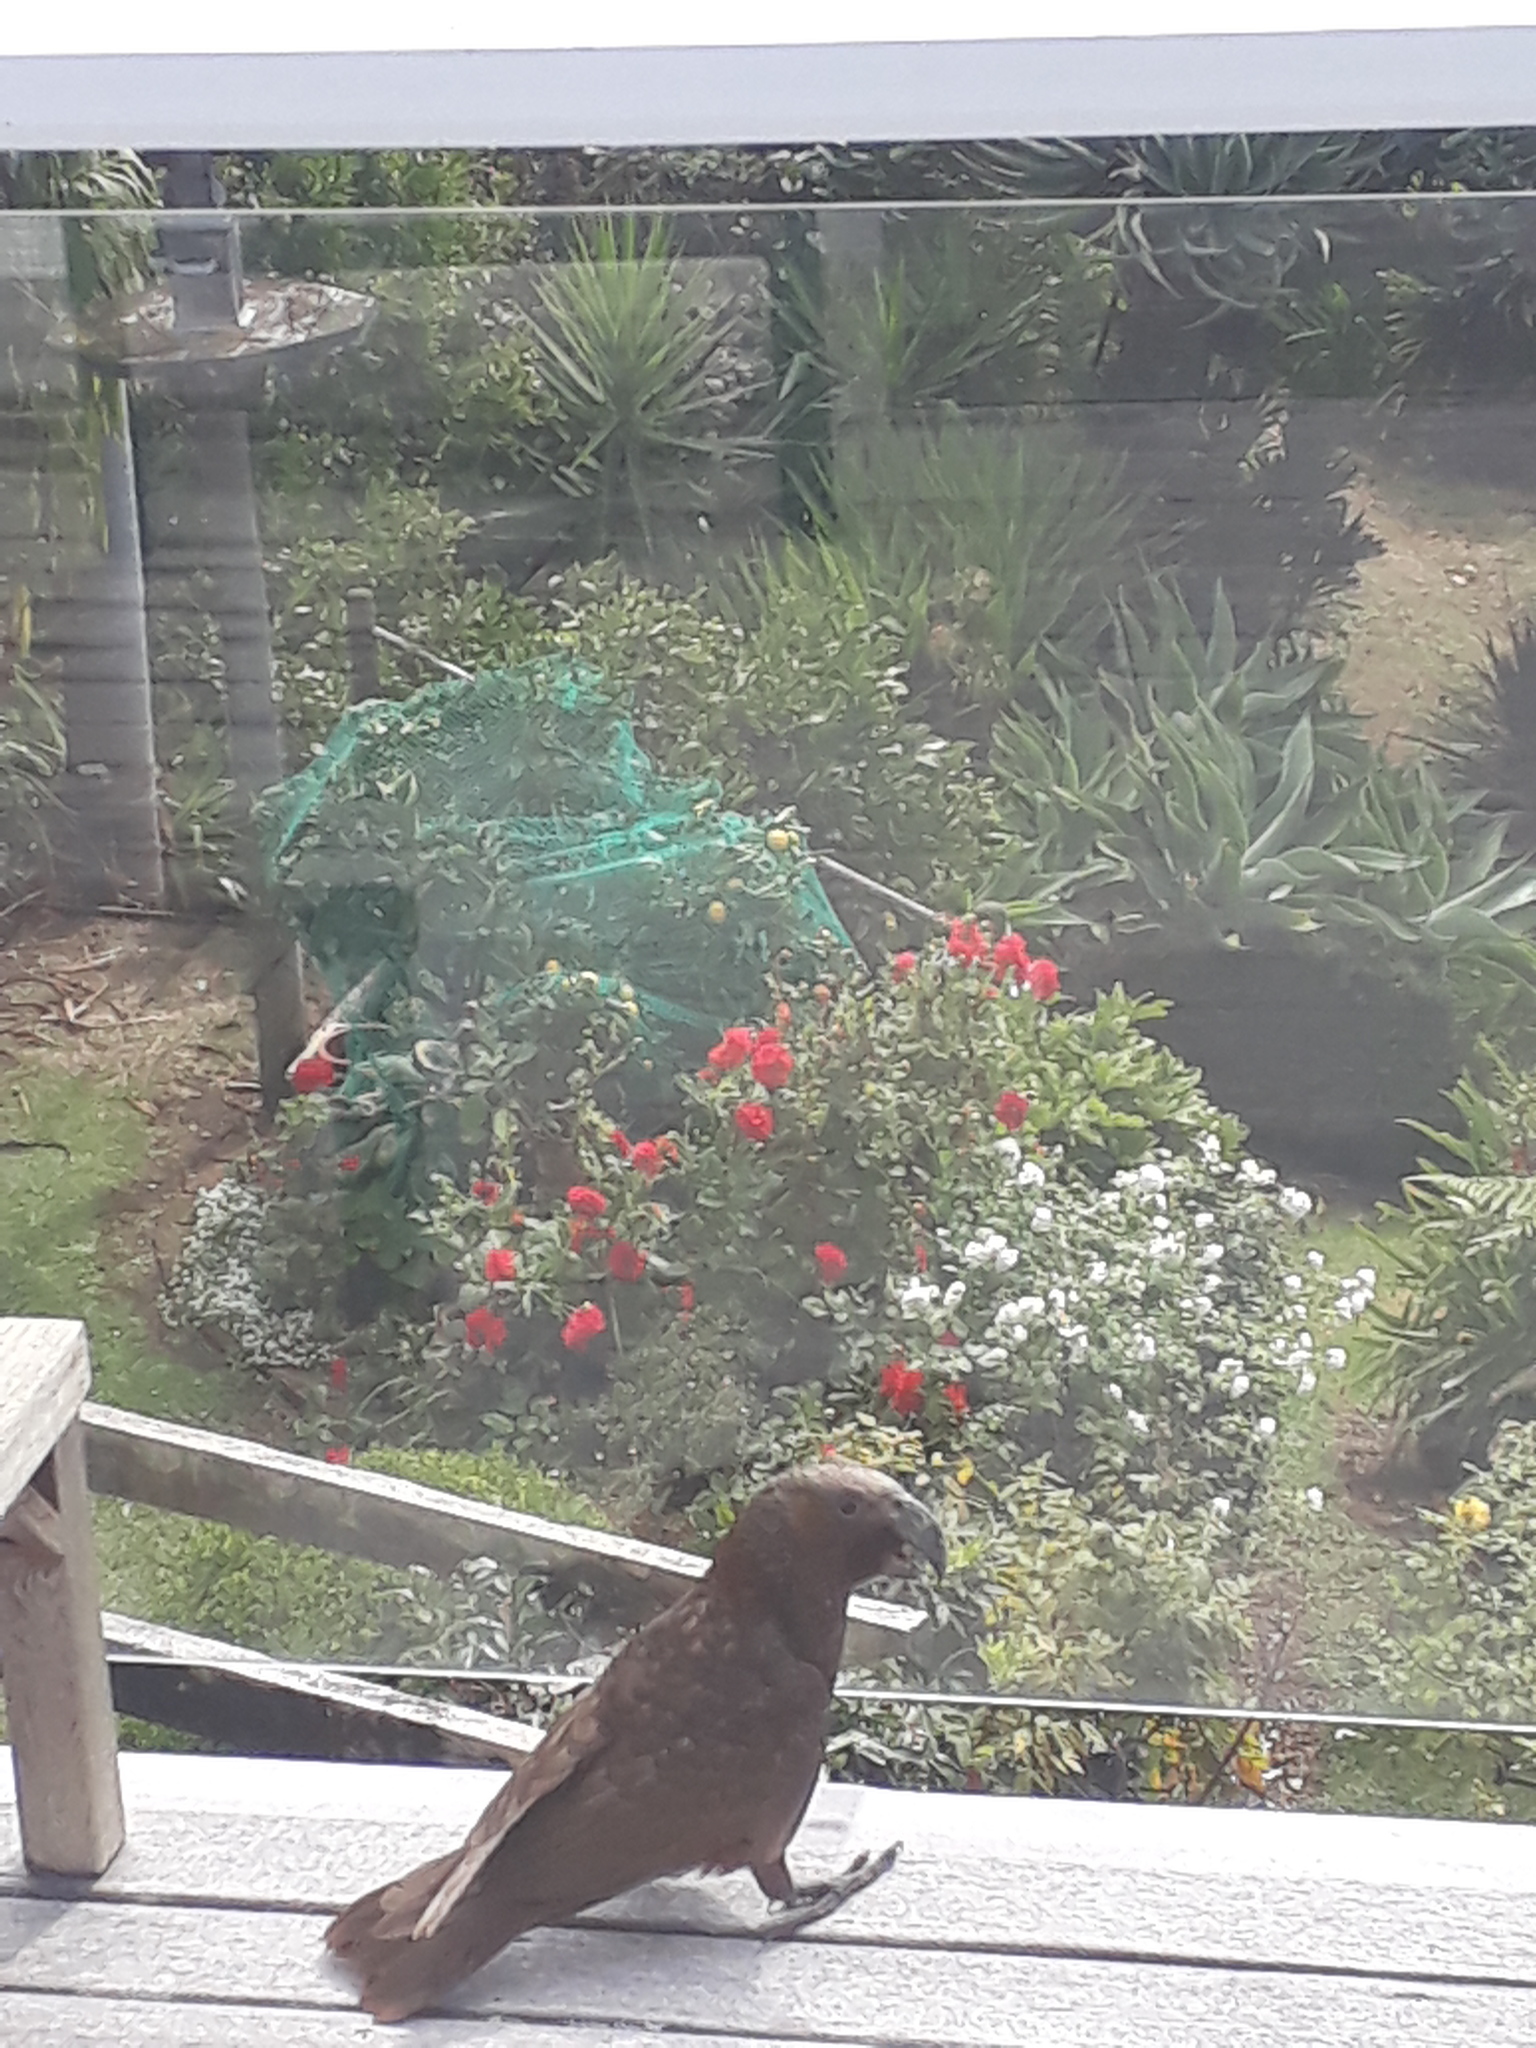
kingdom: Animalia
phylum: Chordata
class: Aves
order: Psittaciformes
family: Psittacidae
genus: Nestor
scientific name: Nestor meridionalis
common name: New zealand kaka
